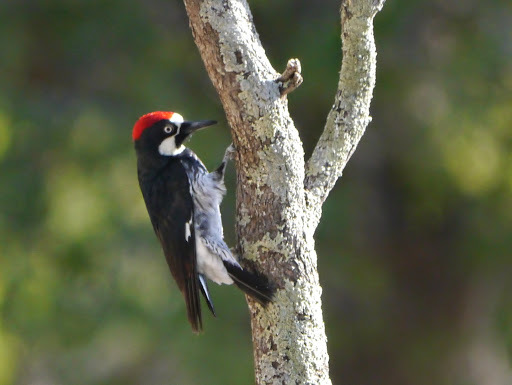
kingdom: Animalia
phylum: Chordata
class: Aves
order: Piciformes
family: Picidae
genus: Melanerpes
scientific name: Melanerpes formicivorus
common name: Acorn woodpecker
